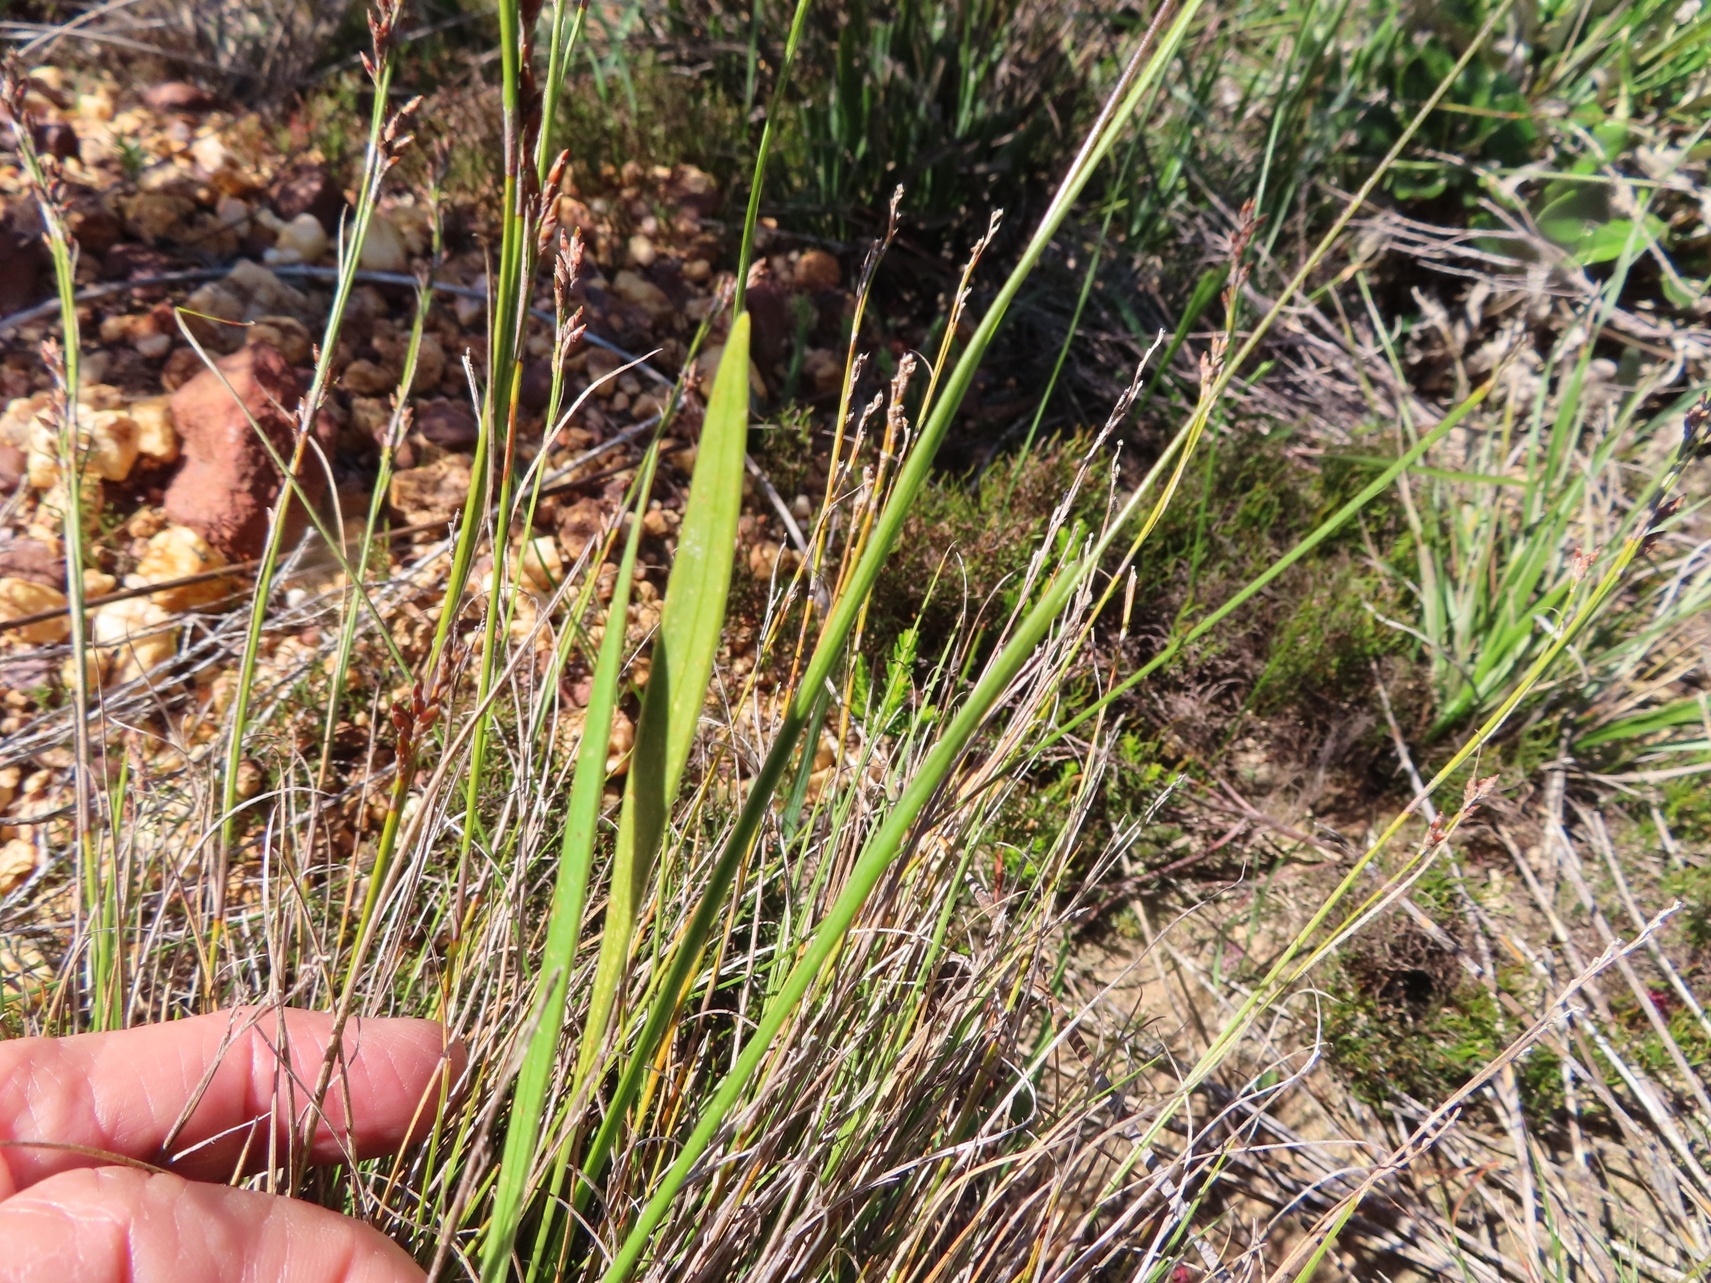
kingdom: Plantae
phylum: Tracheophyta
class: Liliopsida
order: Asparagales
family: Iridaceae
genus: Ixia
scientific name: Ixia bifolia
